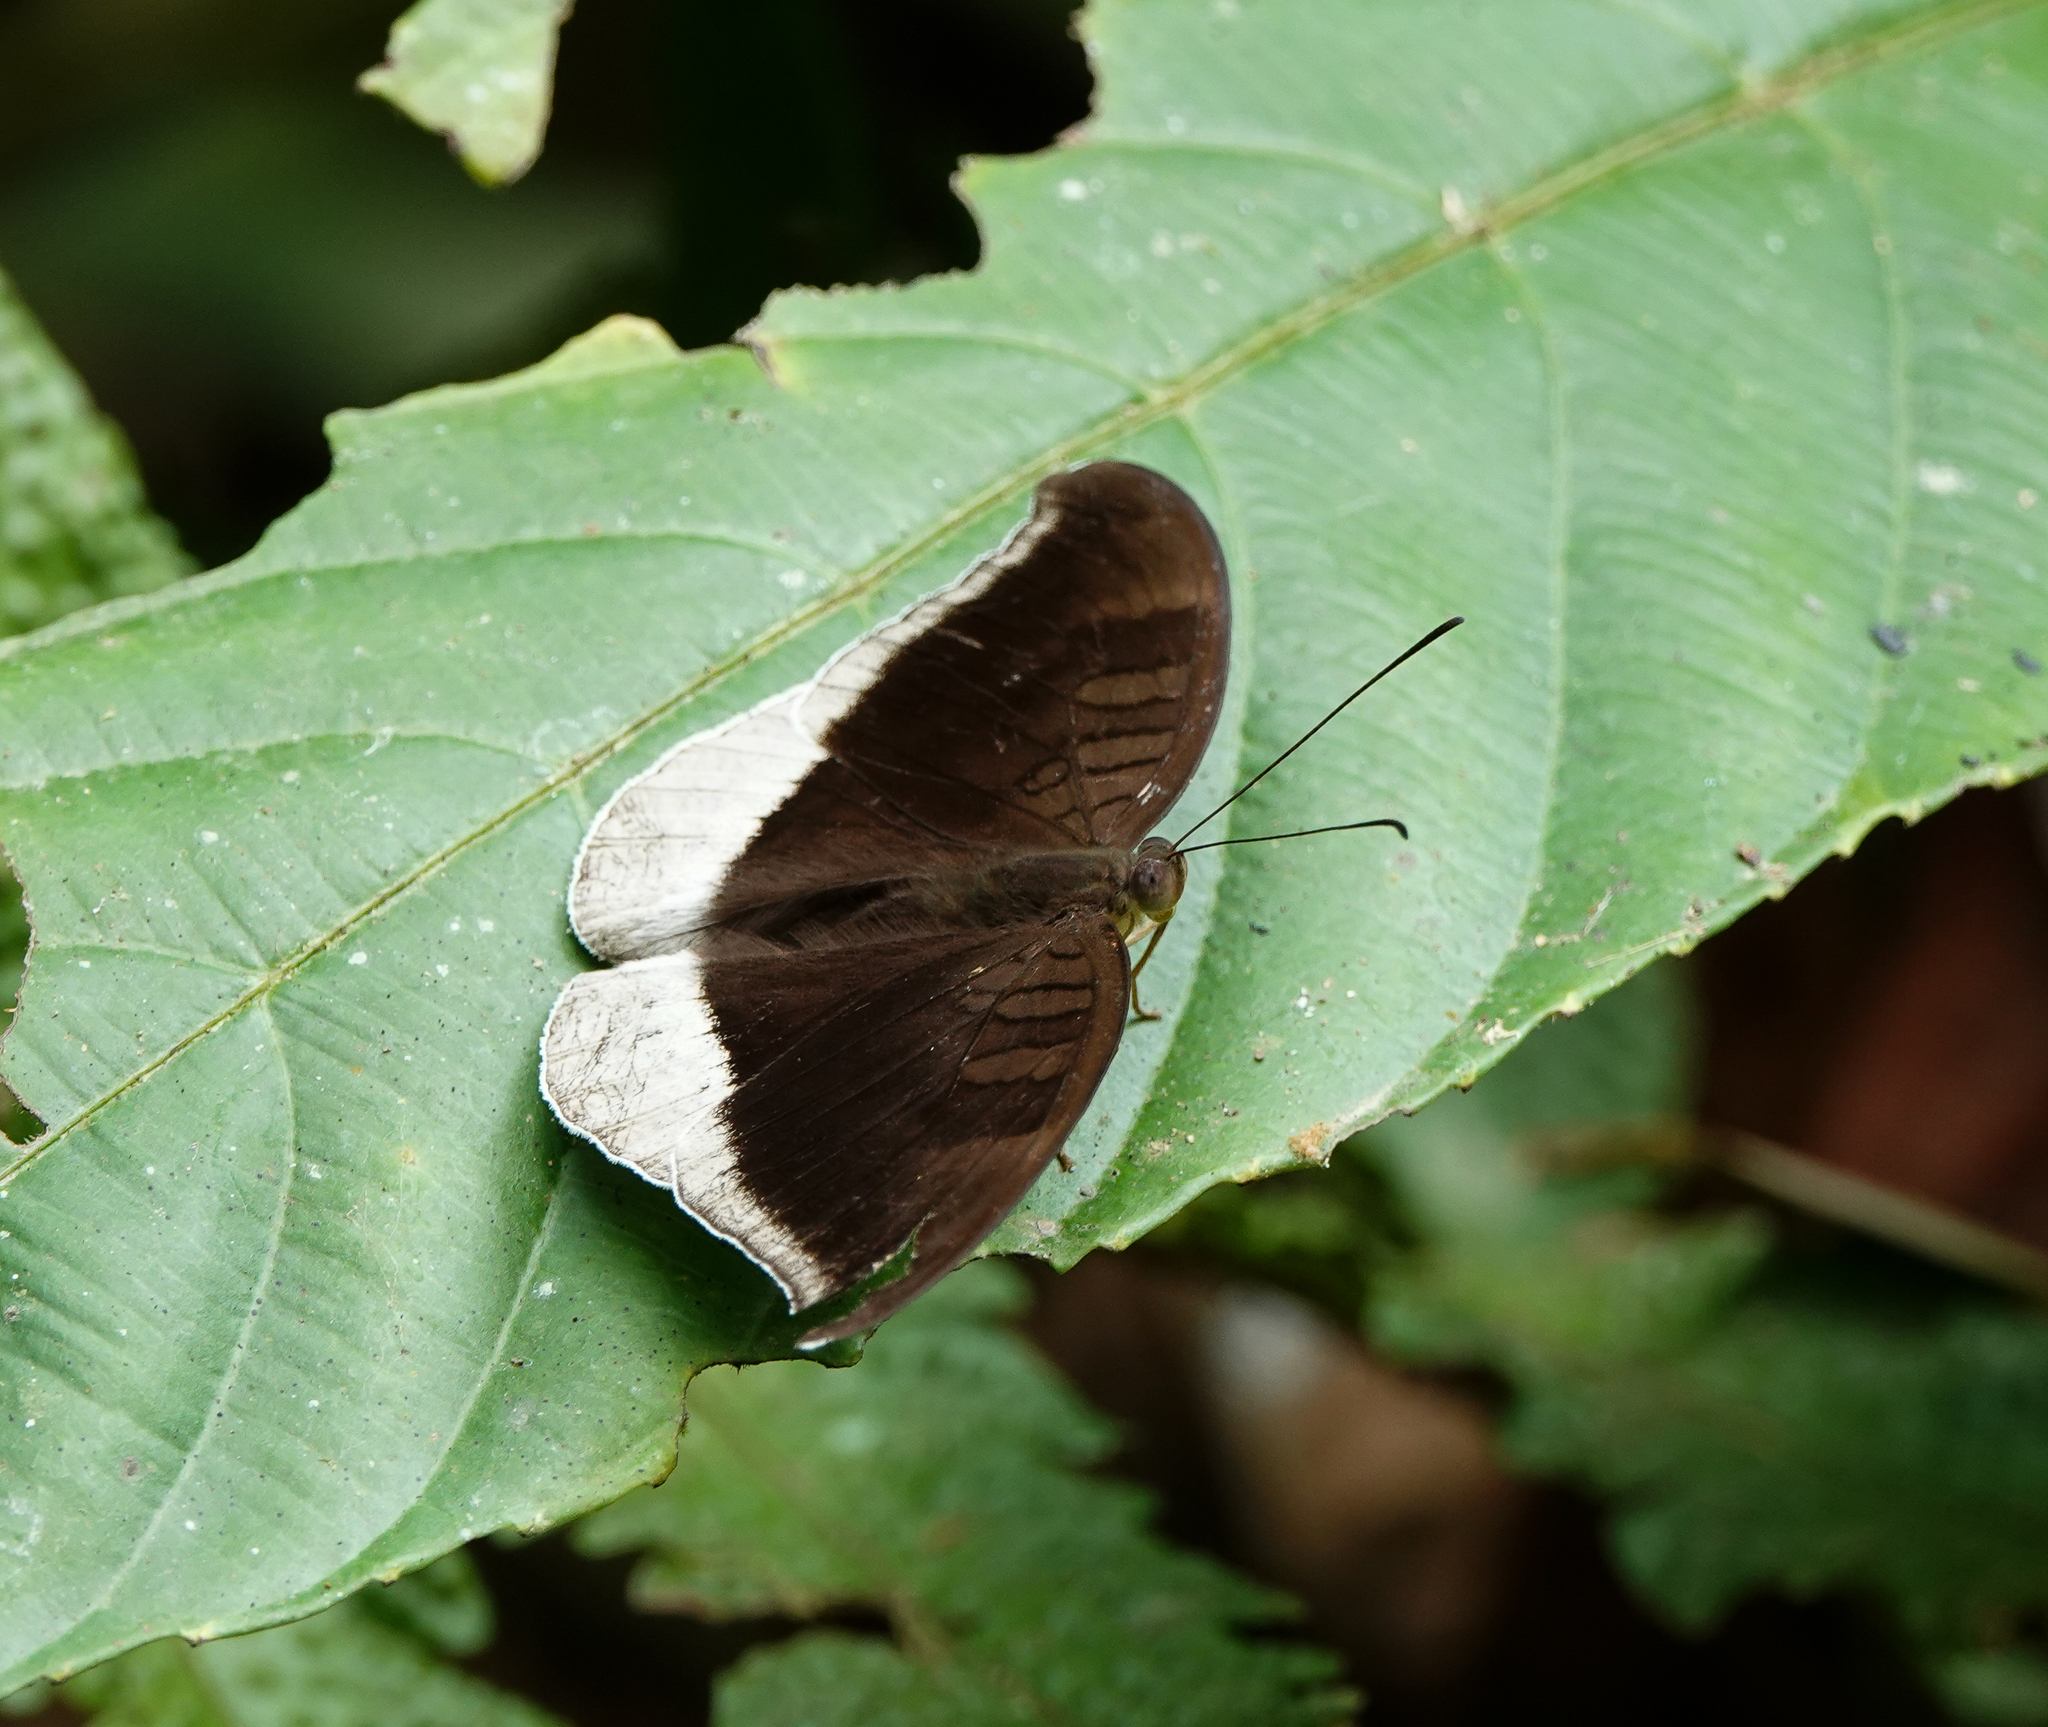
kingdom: Animalia
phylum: Arthropoda
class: Insecta
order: Lepidoptera
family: Nymphalidae
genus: Tanaecia
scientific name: Tanaecia lepidea
